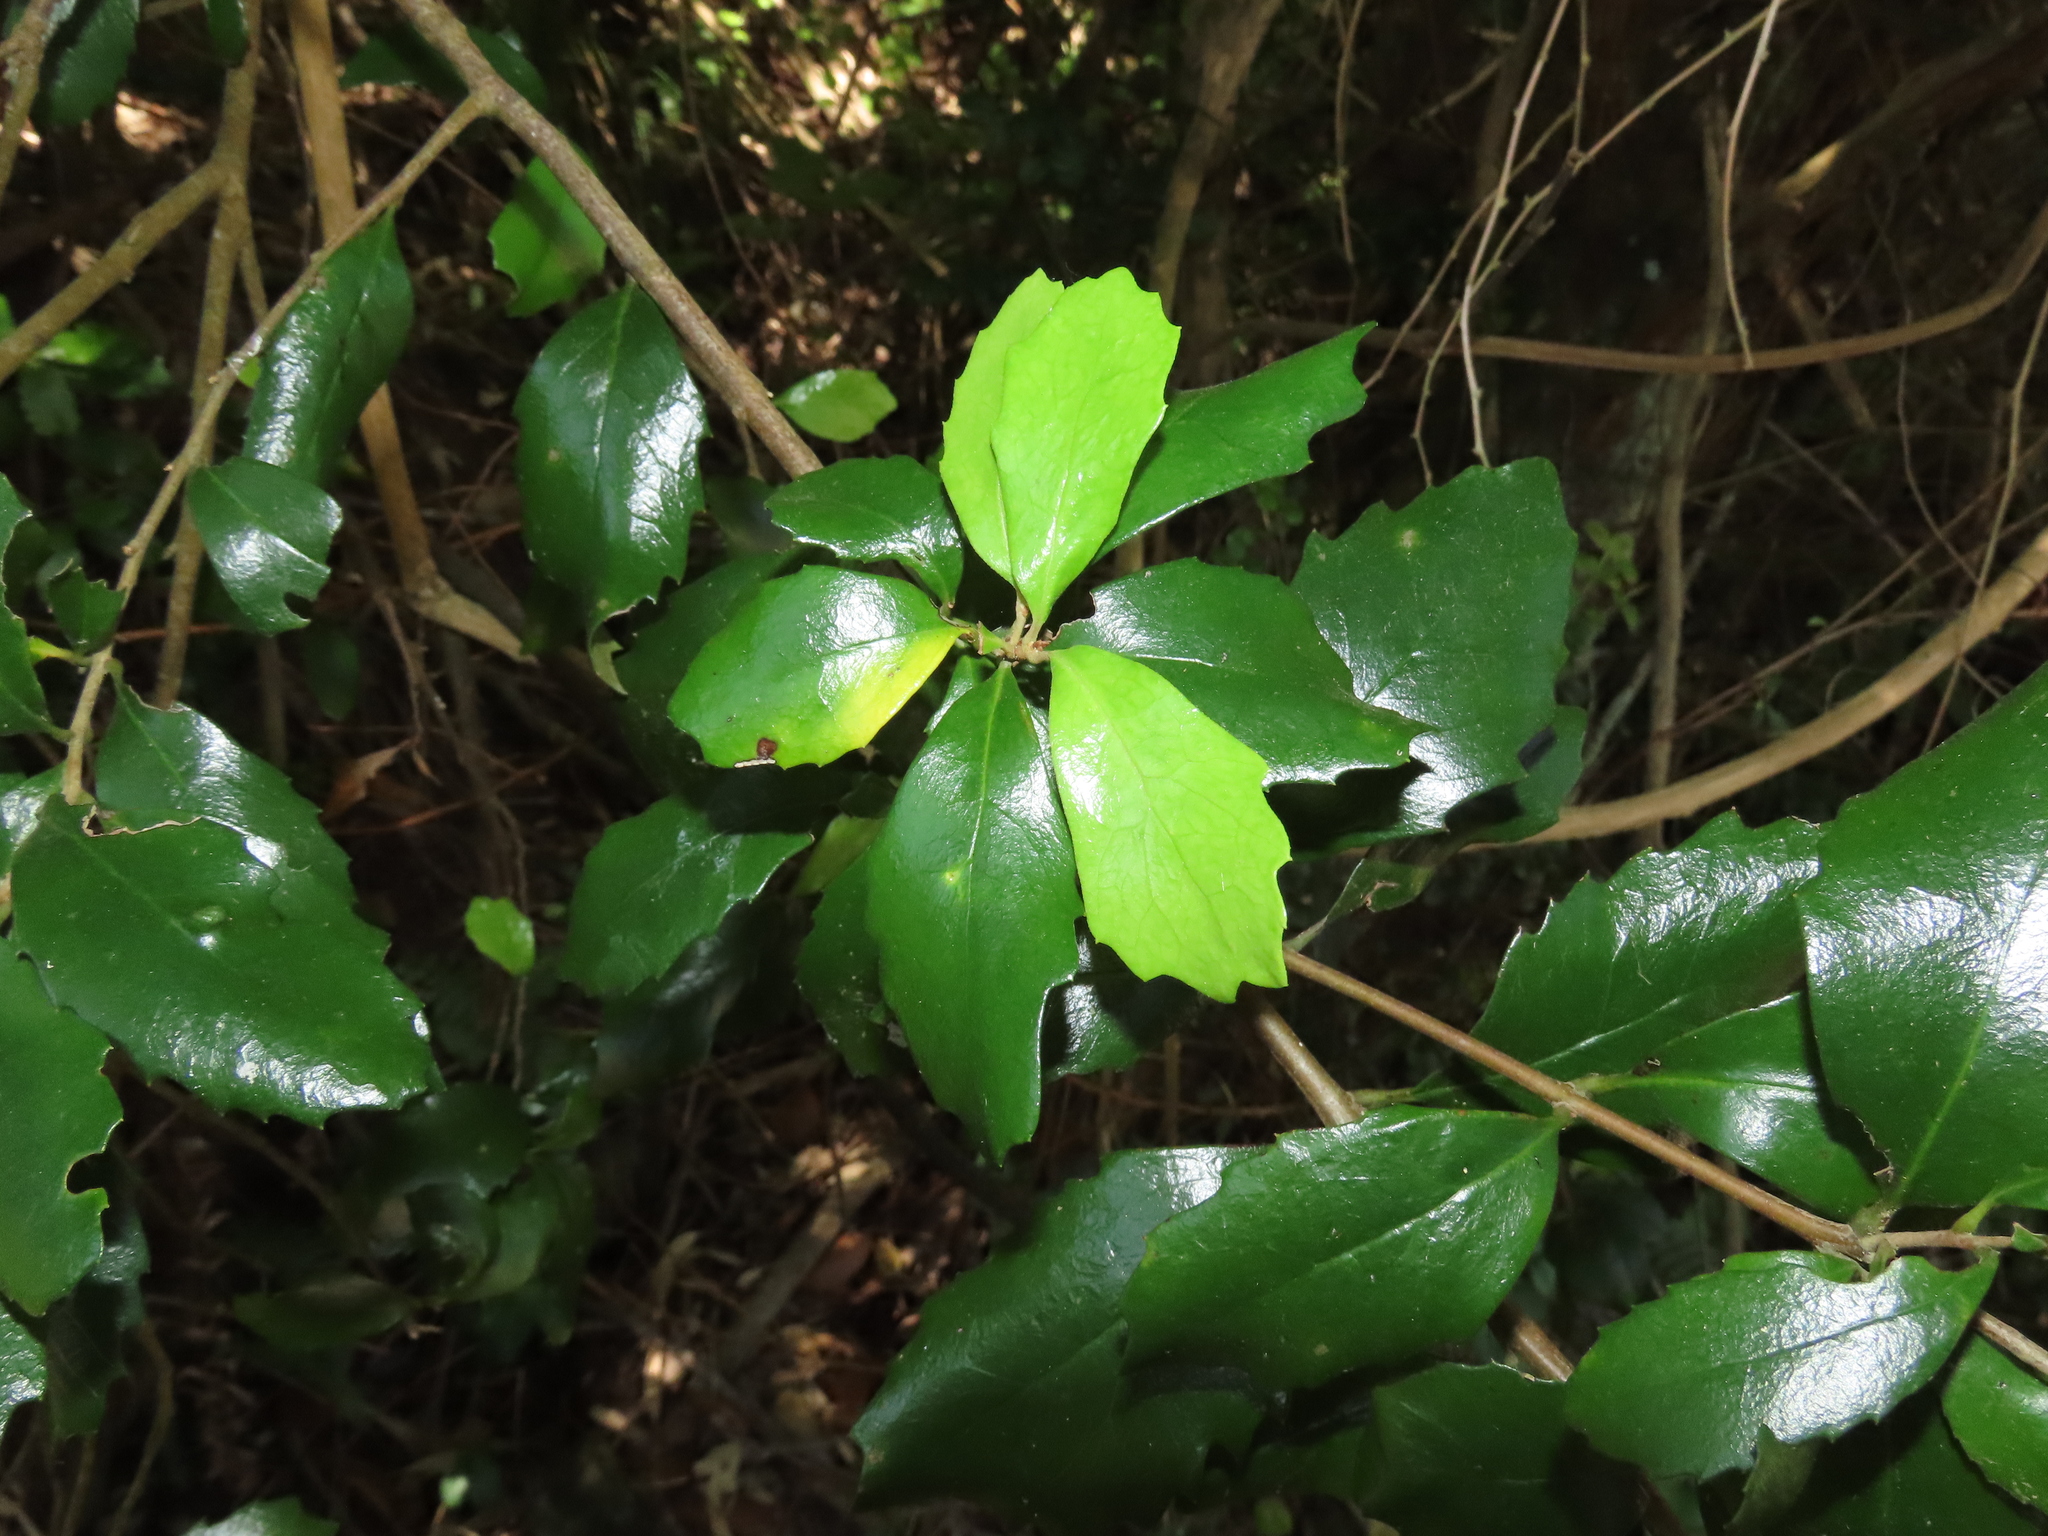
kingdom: Plantae
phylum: Tracheophyta
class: Magnoliopsida
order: Proteales
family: Proteaceae
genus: Lomatia
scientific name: Lomatia dentata
